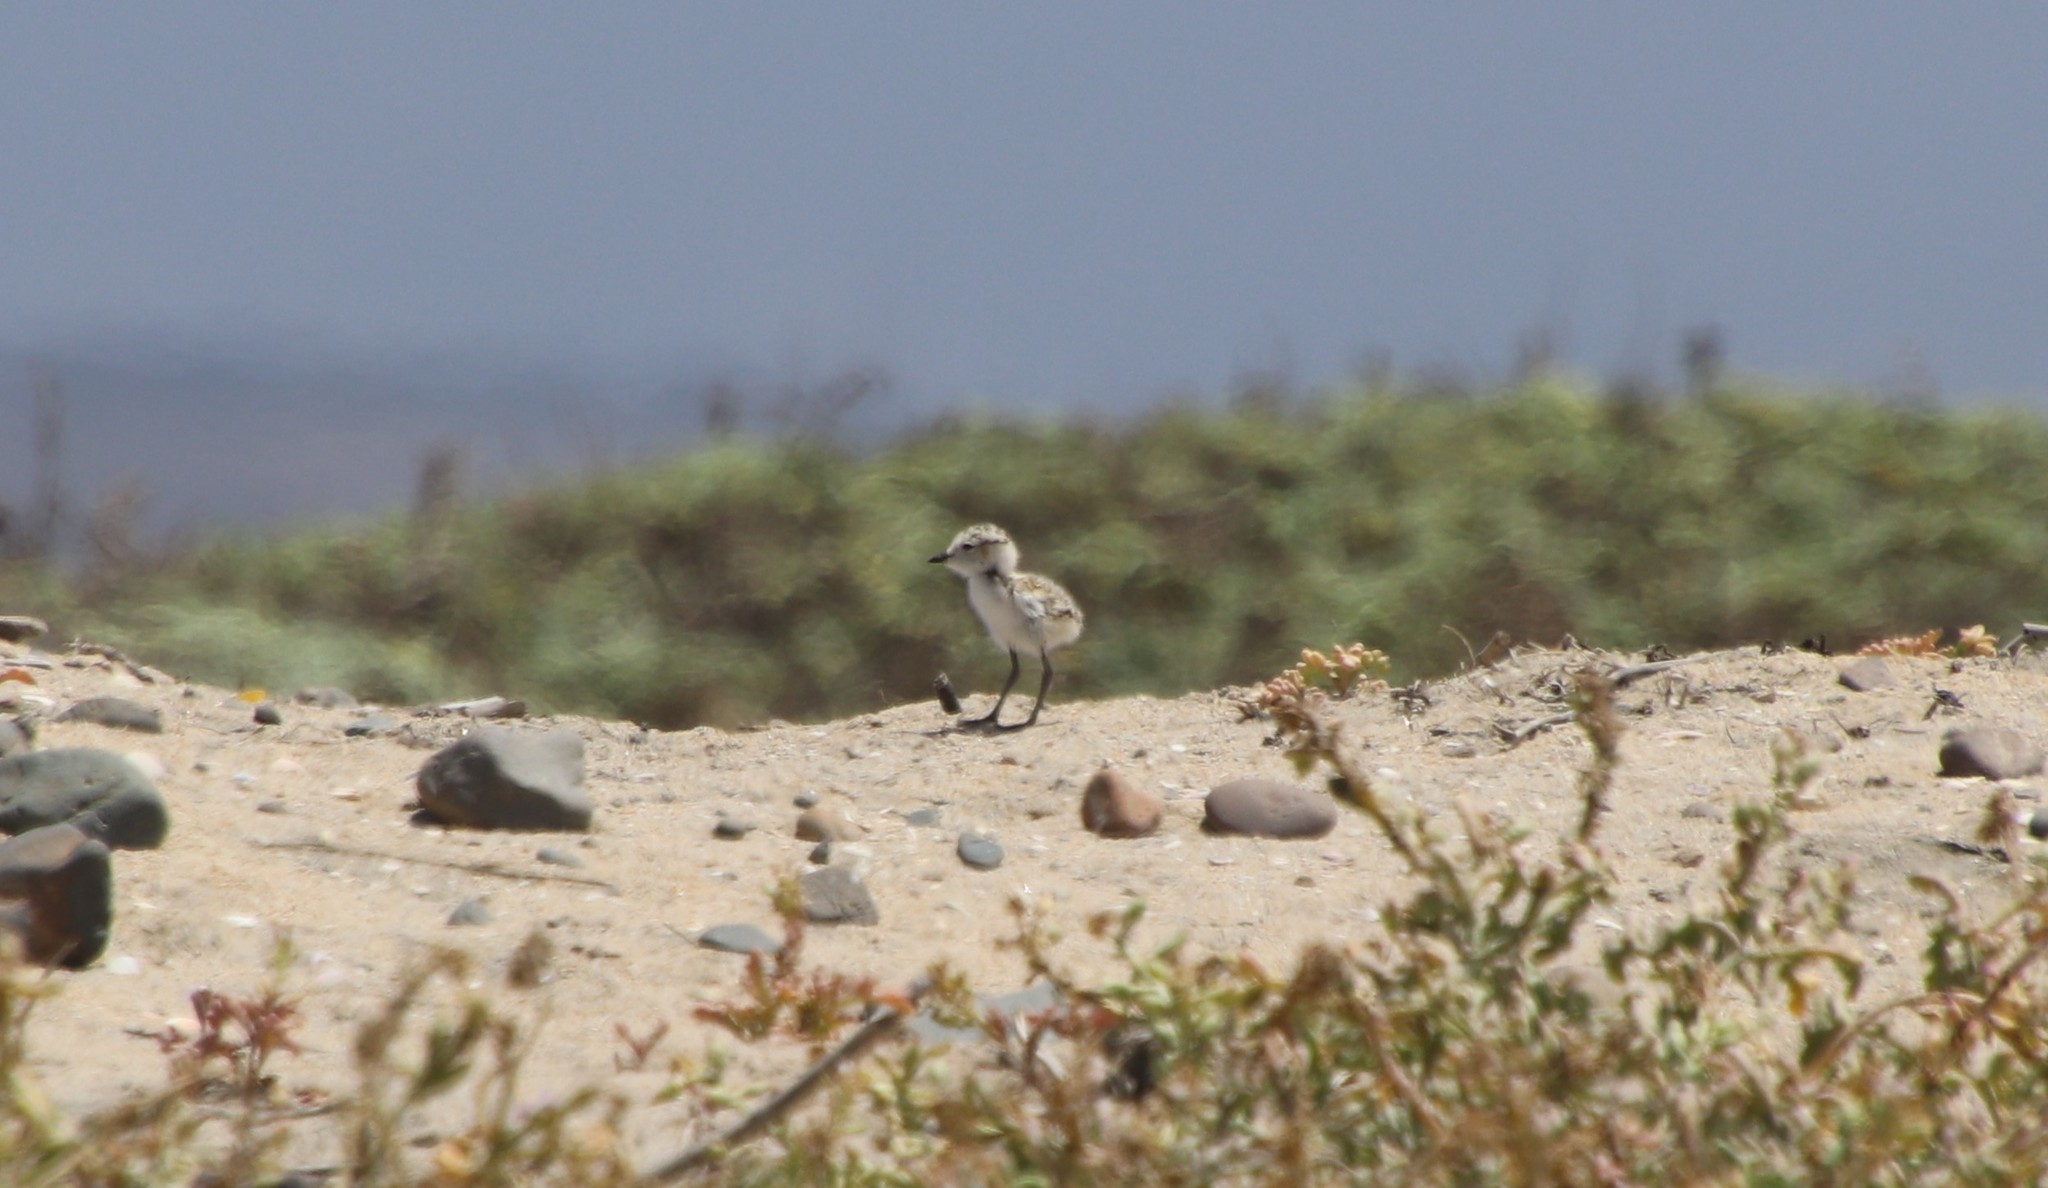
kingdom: Animalia
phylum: Chordata
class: Aves
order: Charadriiformes
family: Charadriidae
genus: Anarhynchus
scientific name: Anarhynchus
